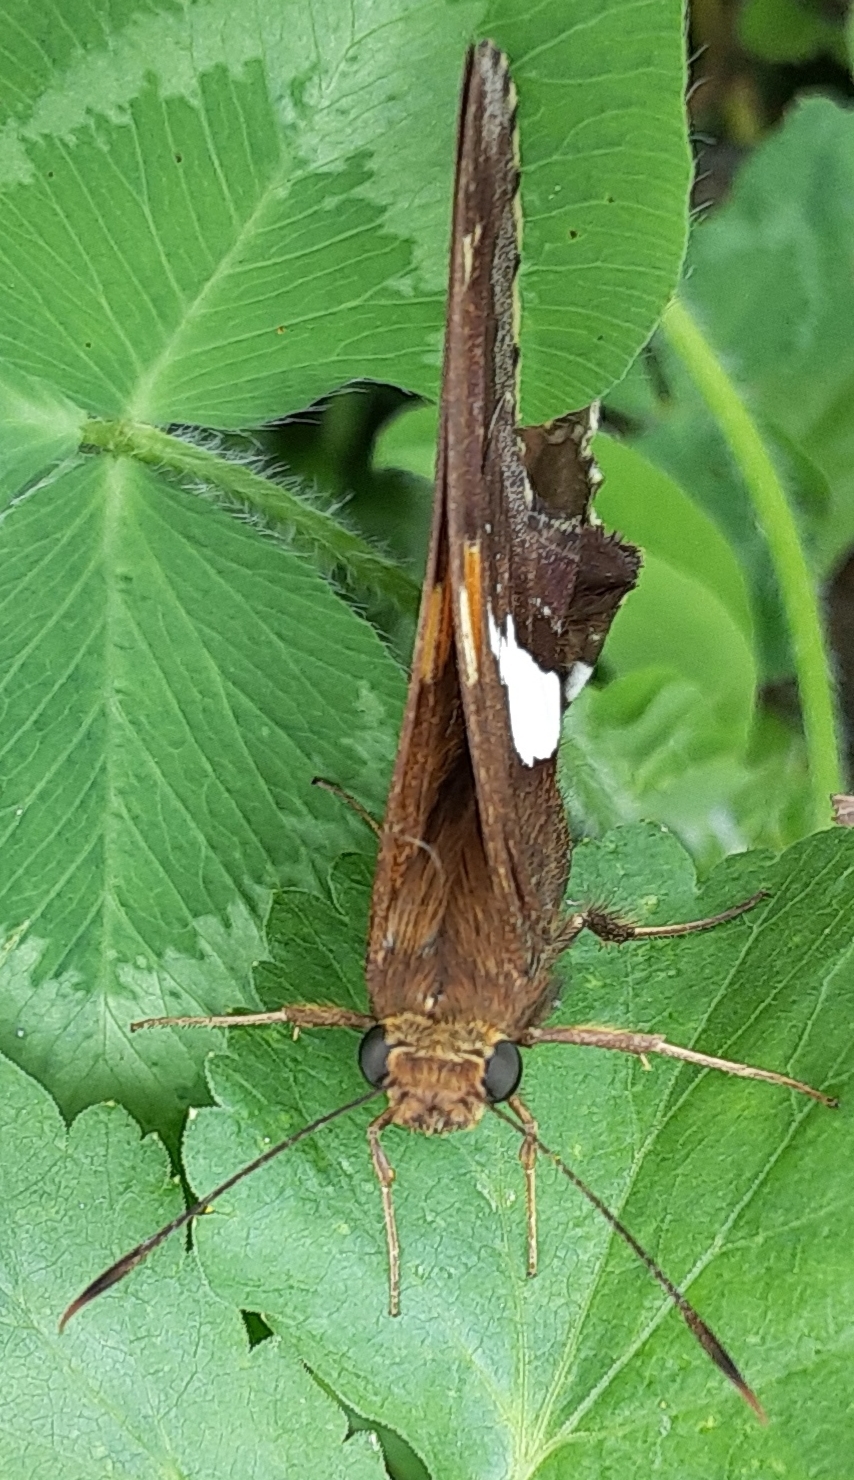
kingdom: Animalia
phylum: Arthropoda
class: Insecta
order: Lepidoptera
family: Hesperiidae
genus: Epargyreus
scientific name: Epargyreus clarus
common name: Silver-spotted skipper
